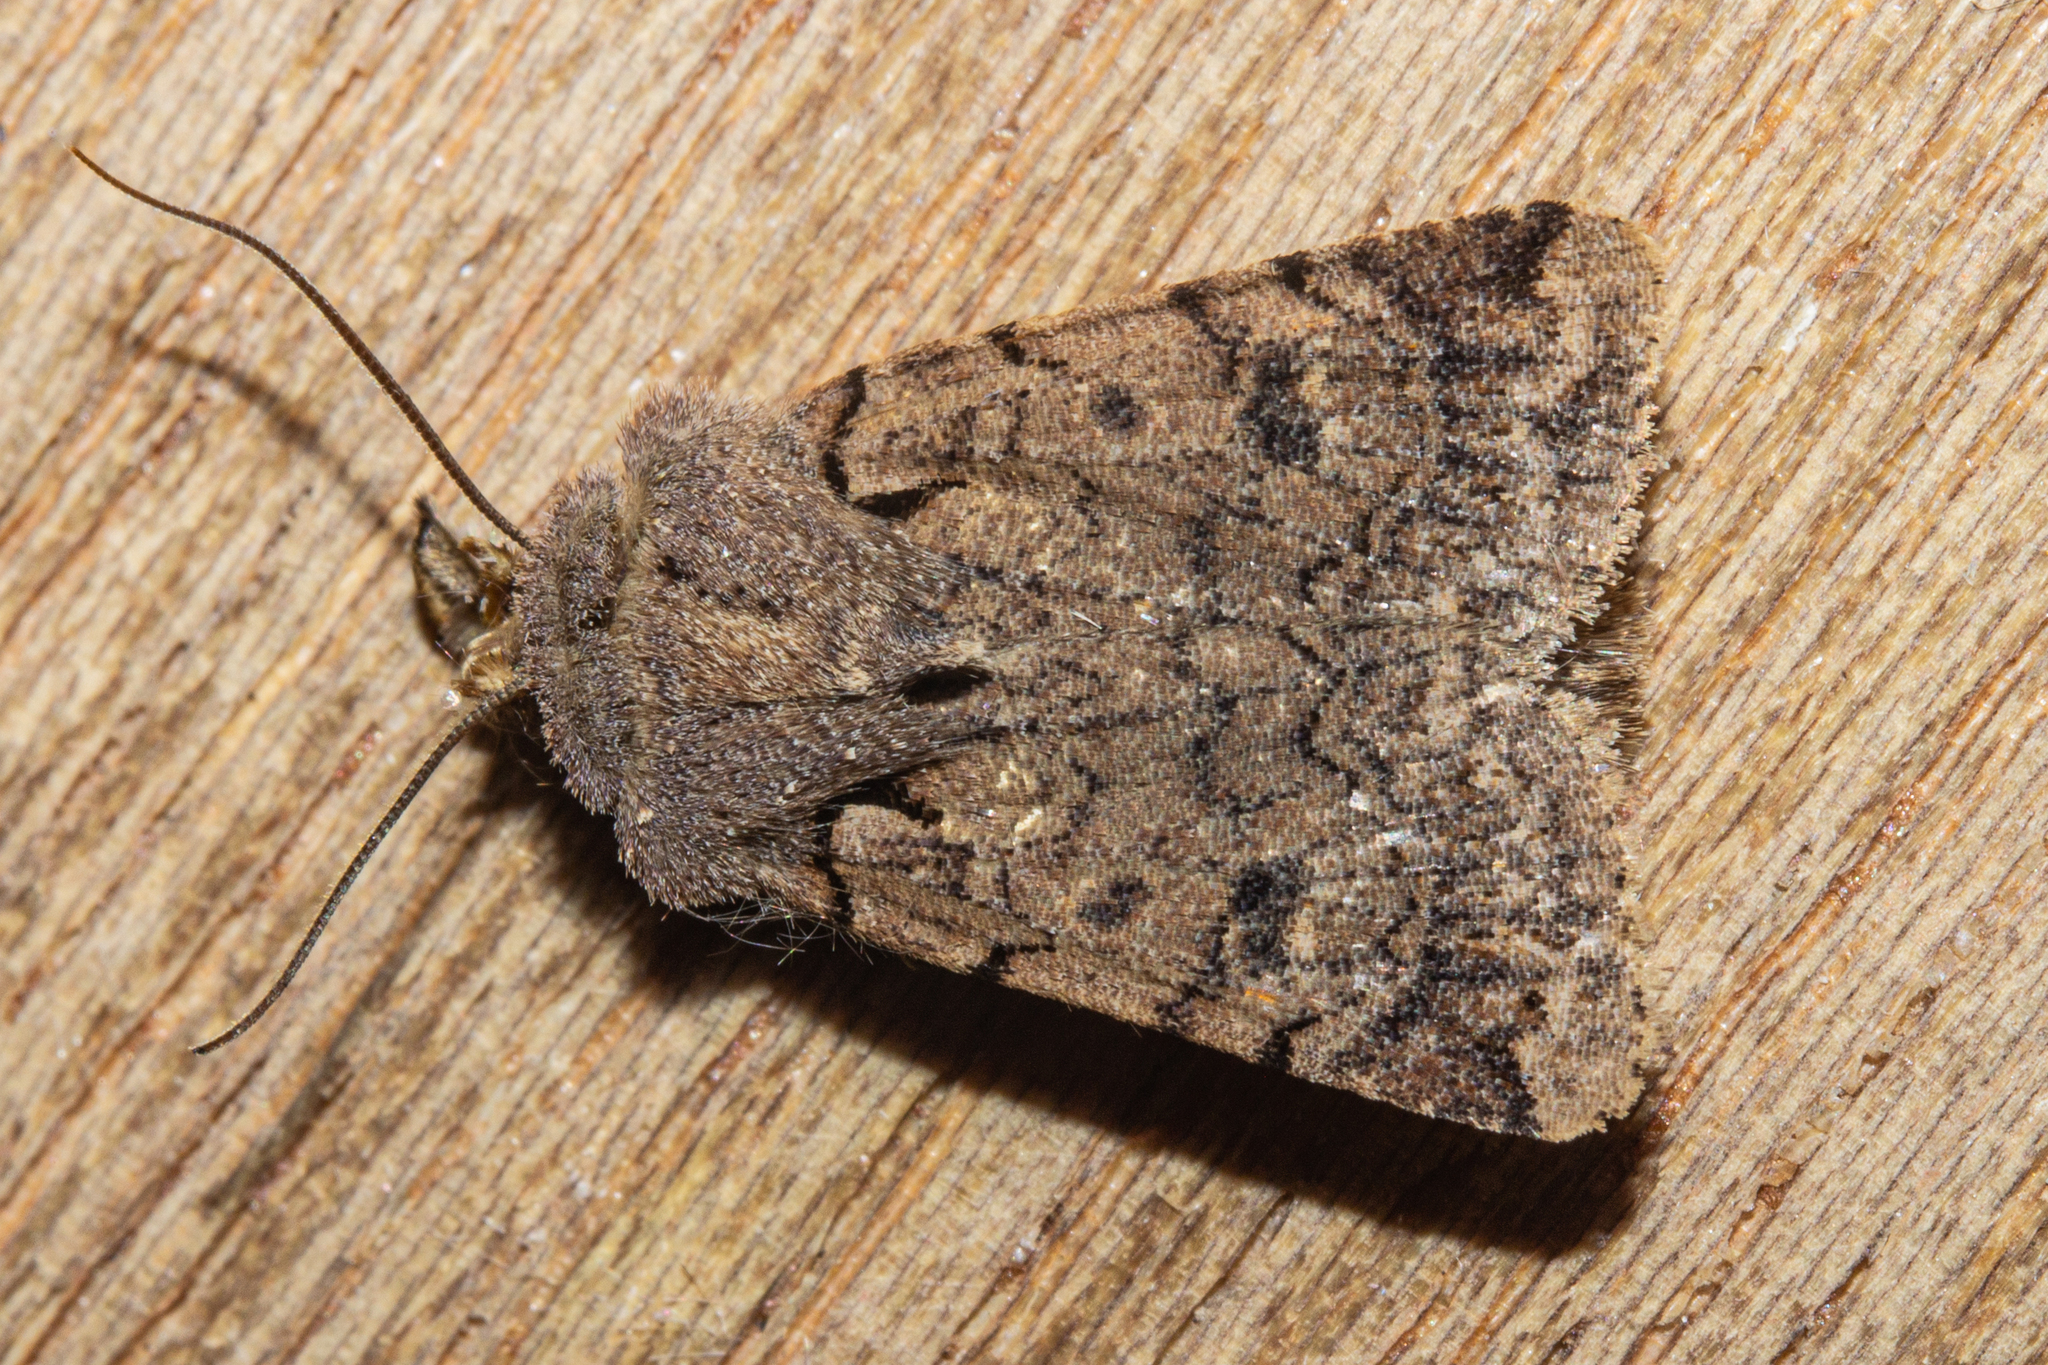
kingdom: Animalia
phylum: Arthropoda
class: Insecta
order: Lepidoptera
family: Noctuidae
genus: Austramathes
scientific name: Austramathes
